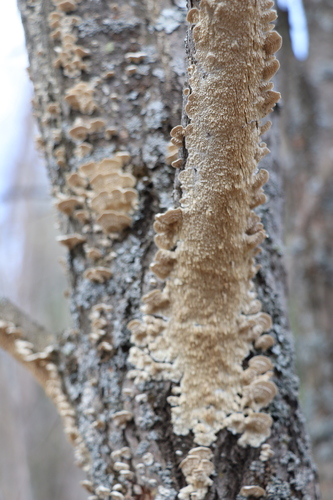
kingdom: Fungi
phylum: Basidiomycota
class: Agaricomycetes
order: Polyporales
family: Irpicaceae
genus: Irpex
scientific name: Irpex lacteus
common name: Milk-white toothed polypore
